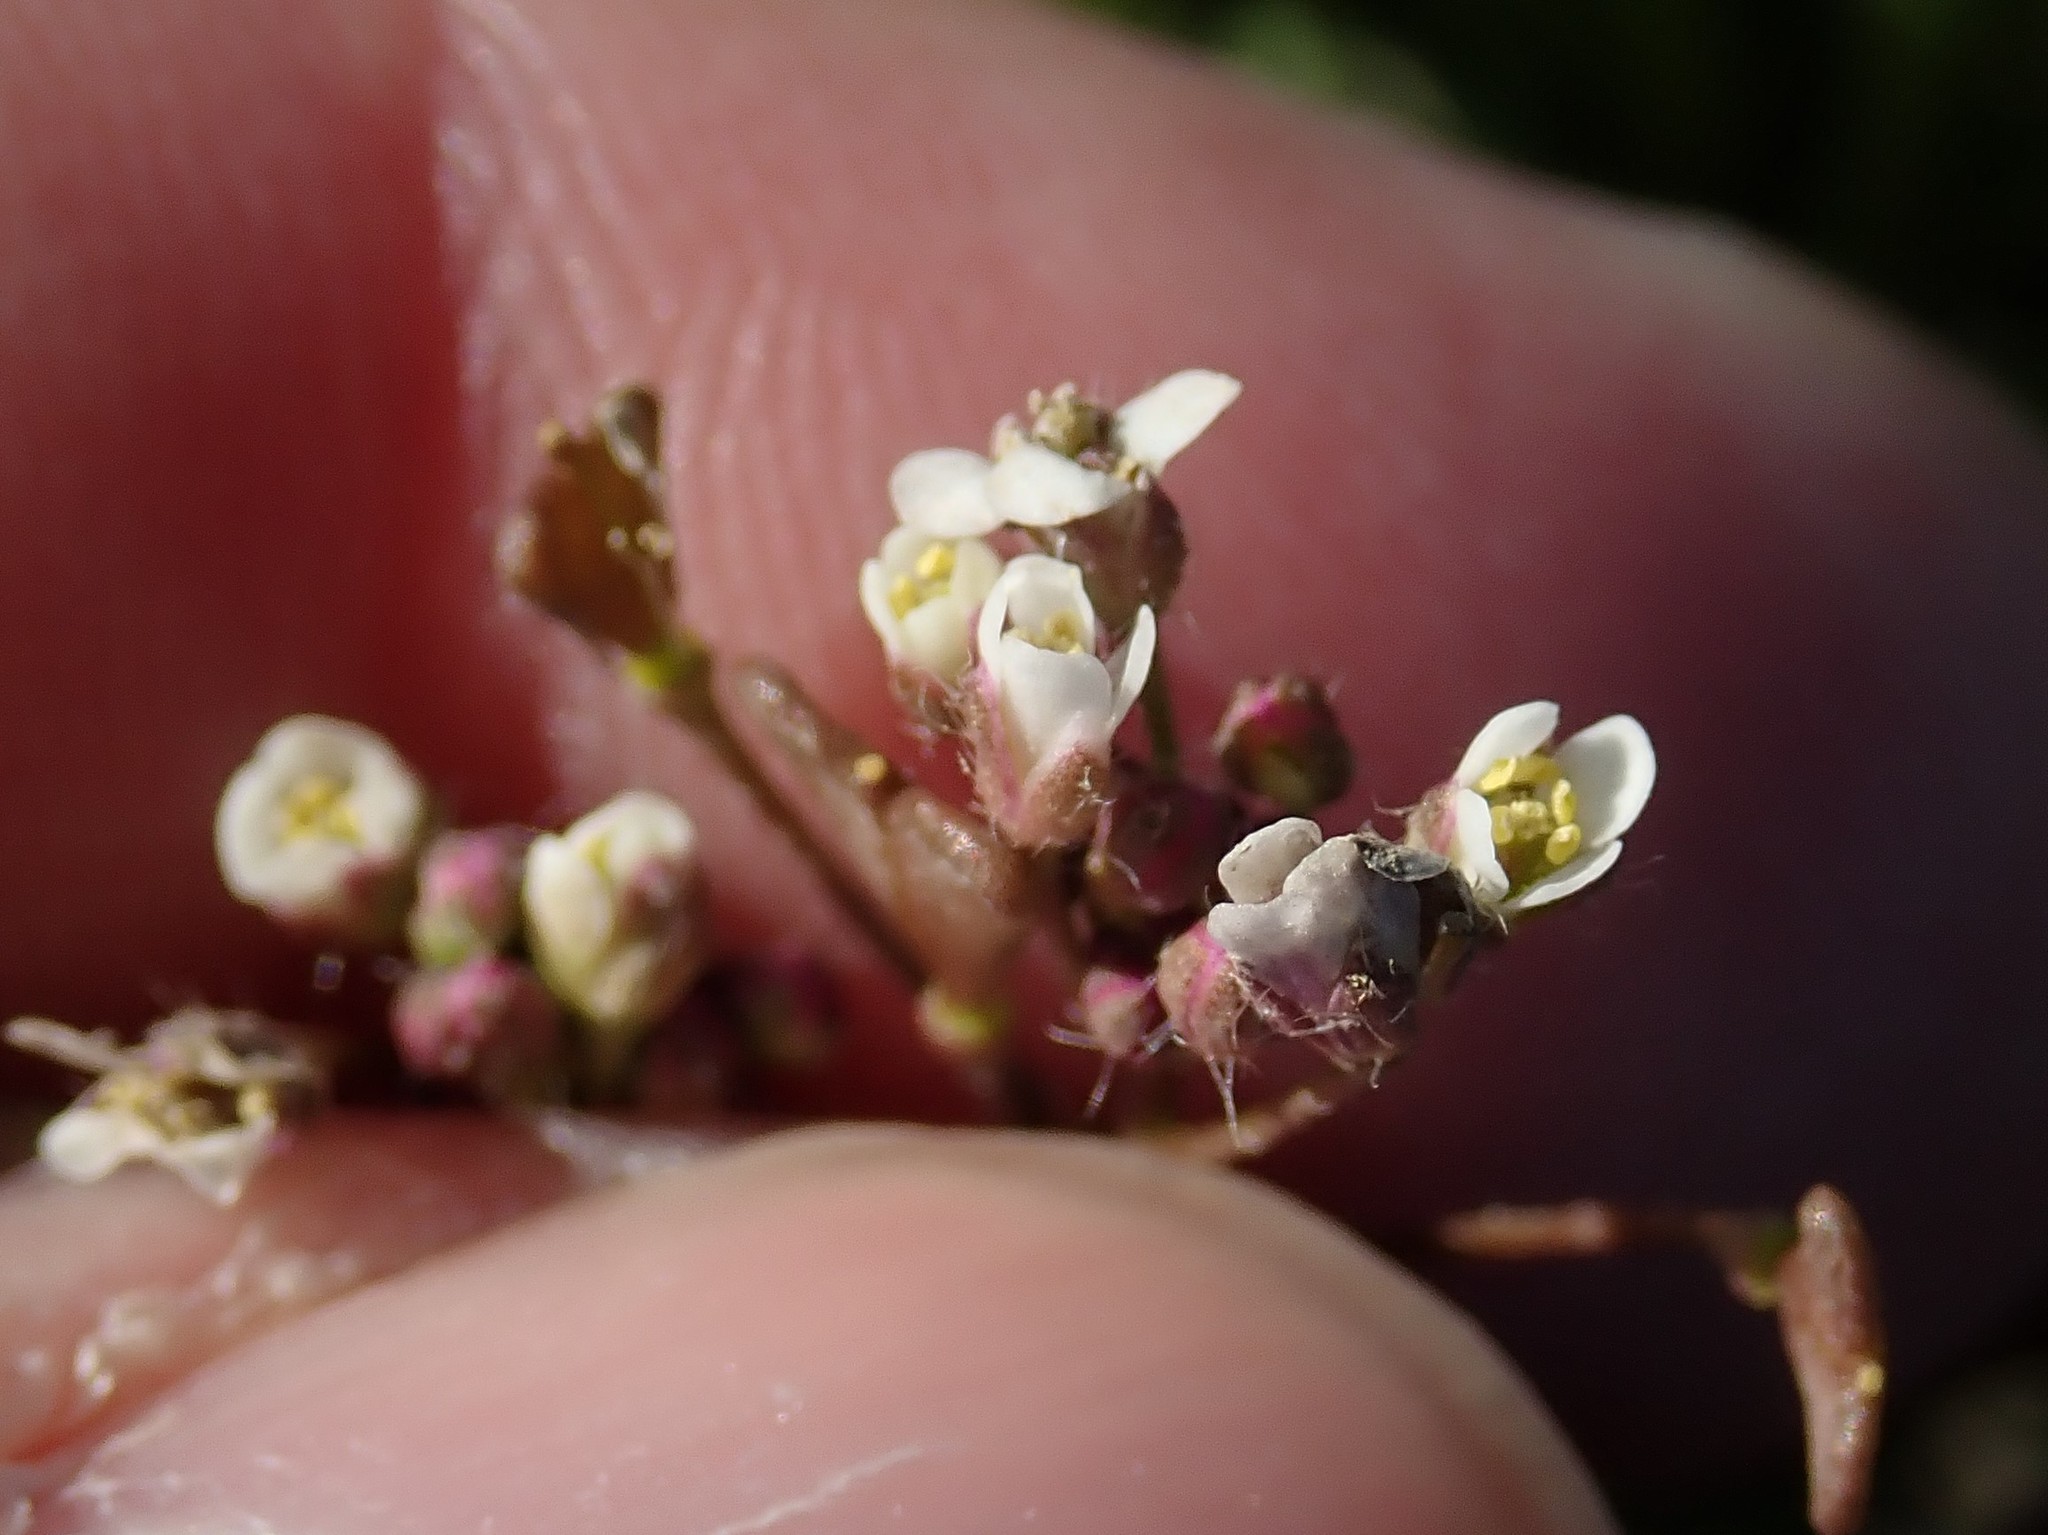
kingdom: Plantae
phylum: Tracheophyta
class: Magnoliopsida
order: Brassicales
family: Brassicaceae
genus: Capsella
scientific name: Capsella bursa-pastoris
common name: Shepherd's purse
